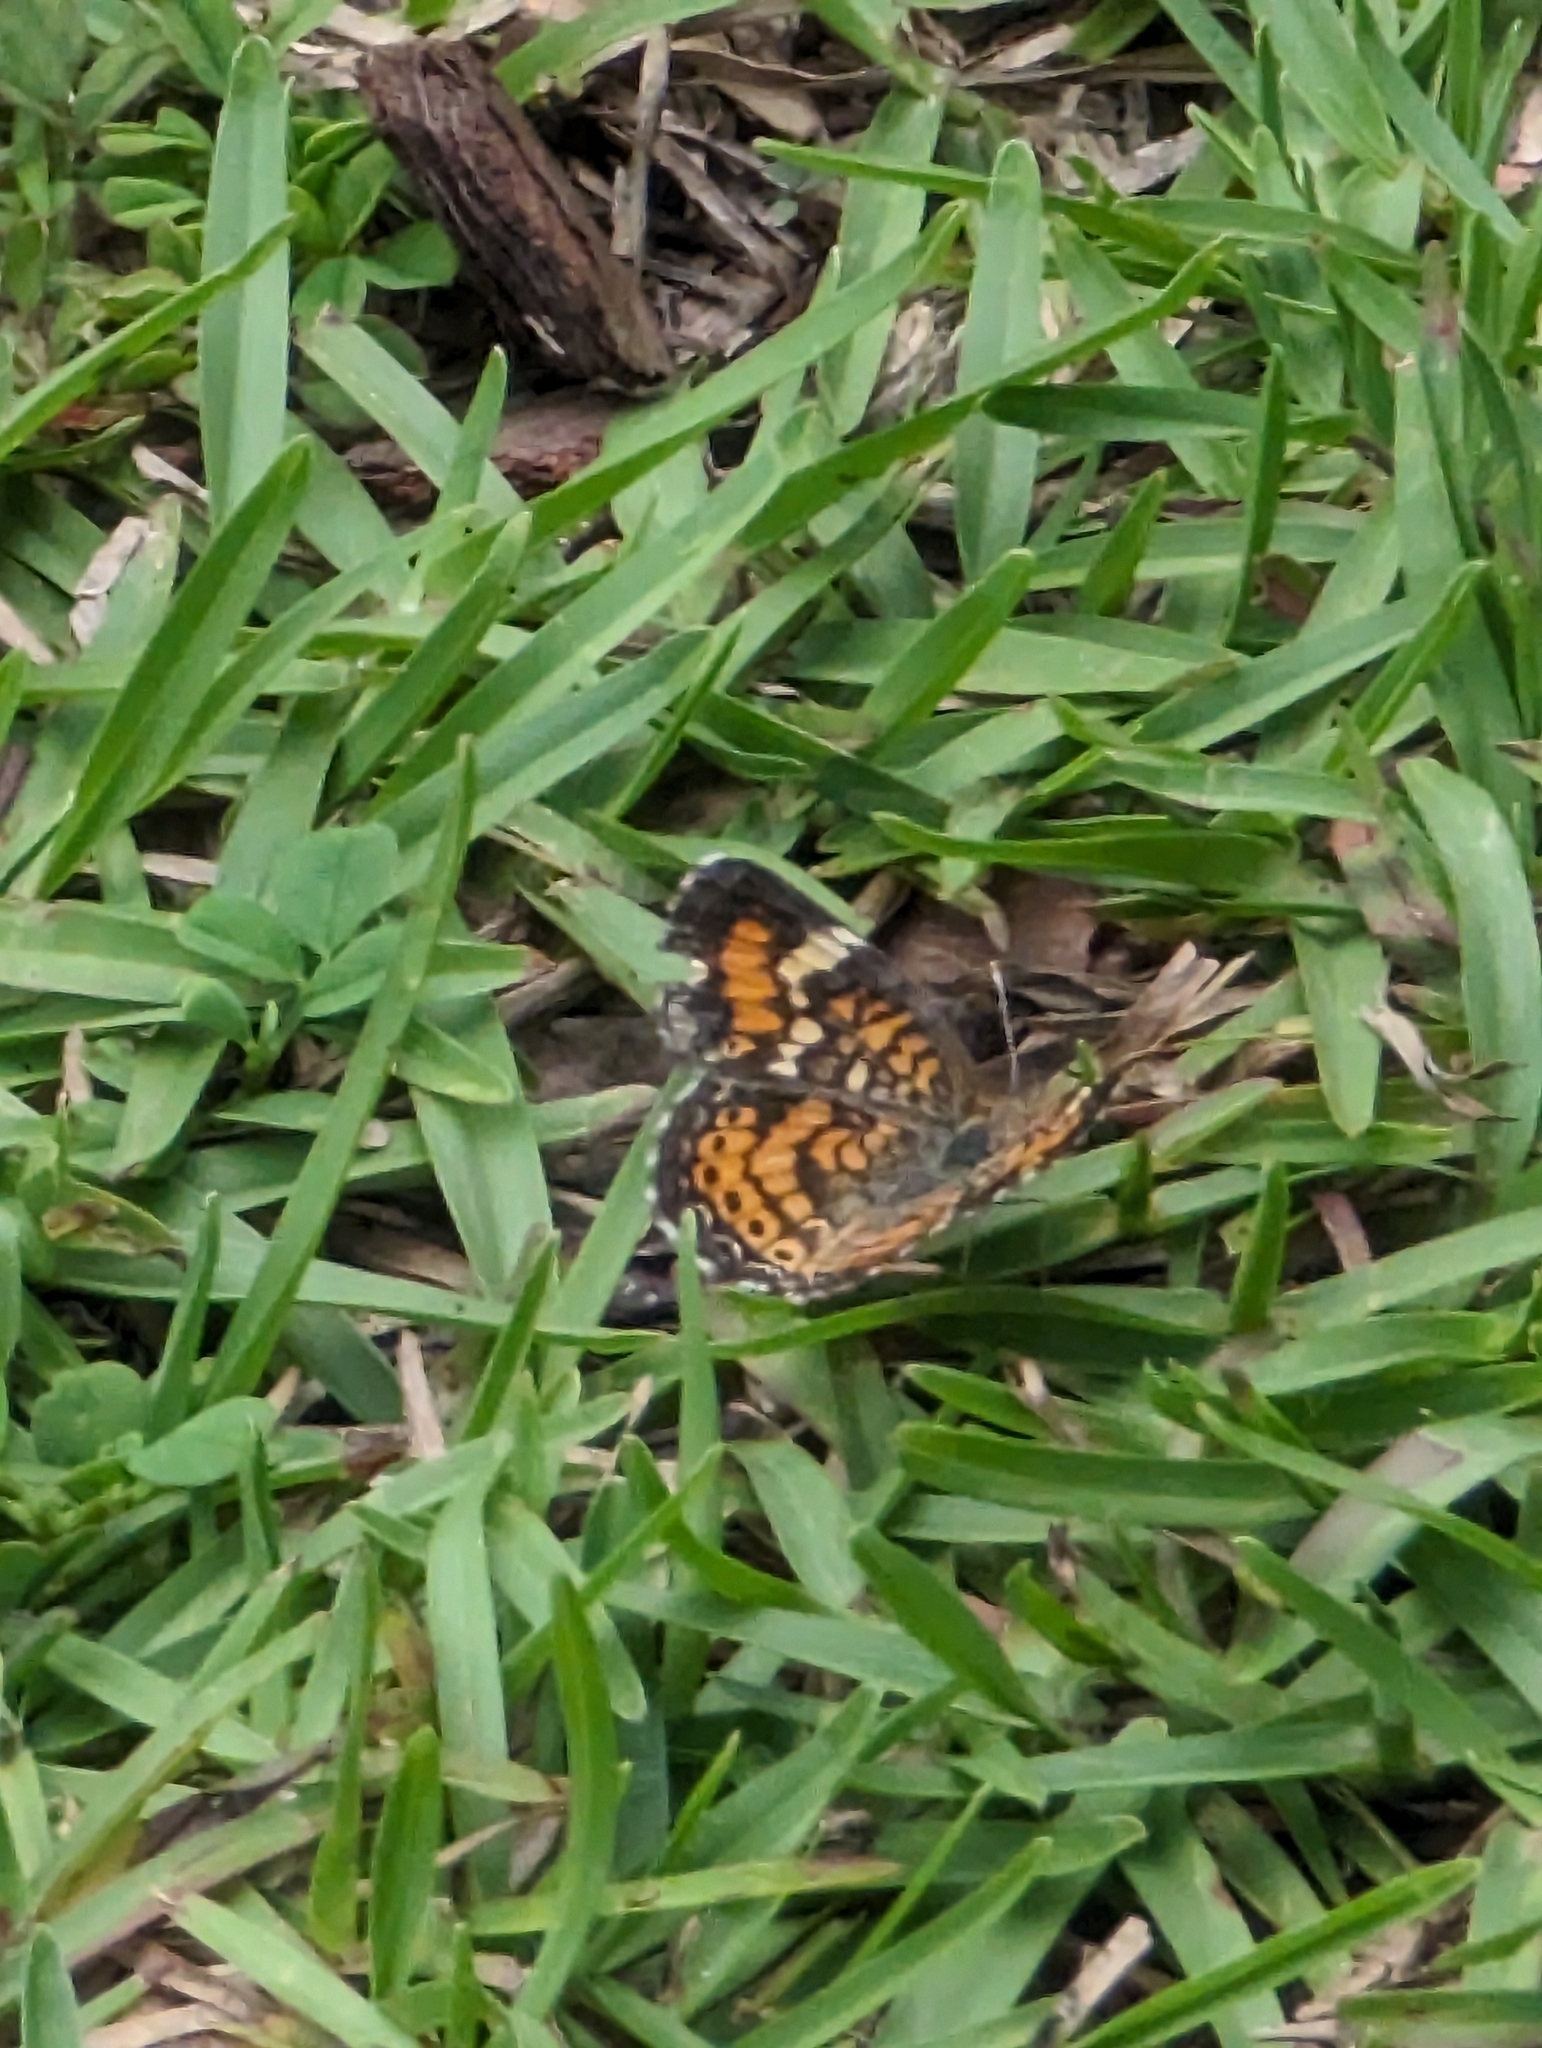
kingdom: Animalia
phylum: Arthropoda
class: Insecta
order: Lepidoptera
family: Nymphalidae
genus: Phyciodes
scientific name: Phyciodes phaon
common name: Phaon crescent
